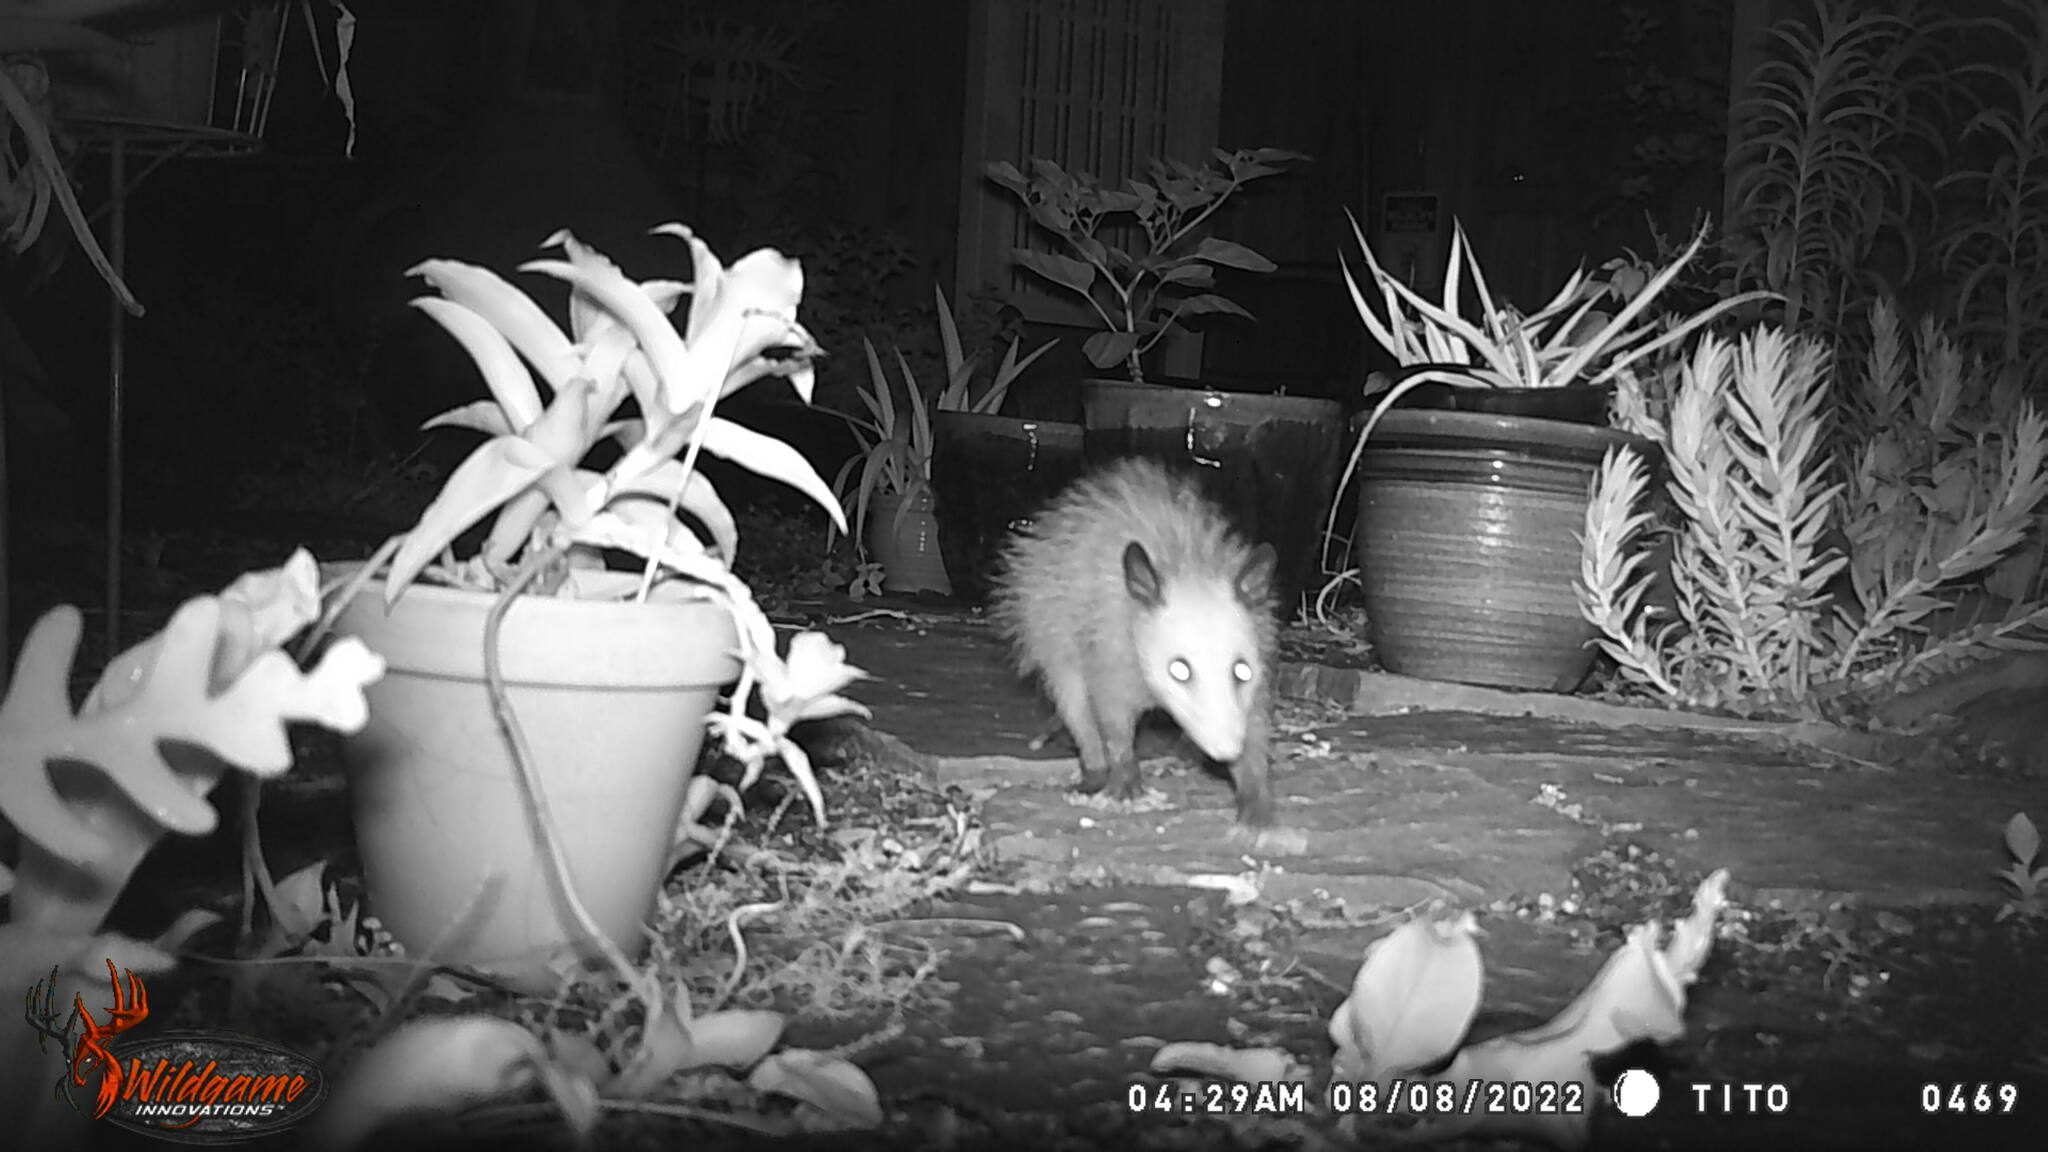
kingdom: Animalia
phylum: Chordata
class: Mammalia
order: Didelphimorphia
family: Didelphidae
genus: Didelphis
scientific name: Didelphis virginiana
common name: Virginia opossum
